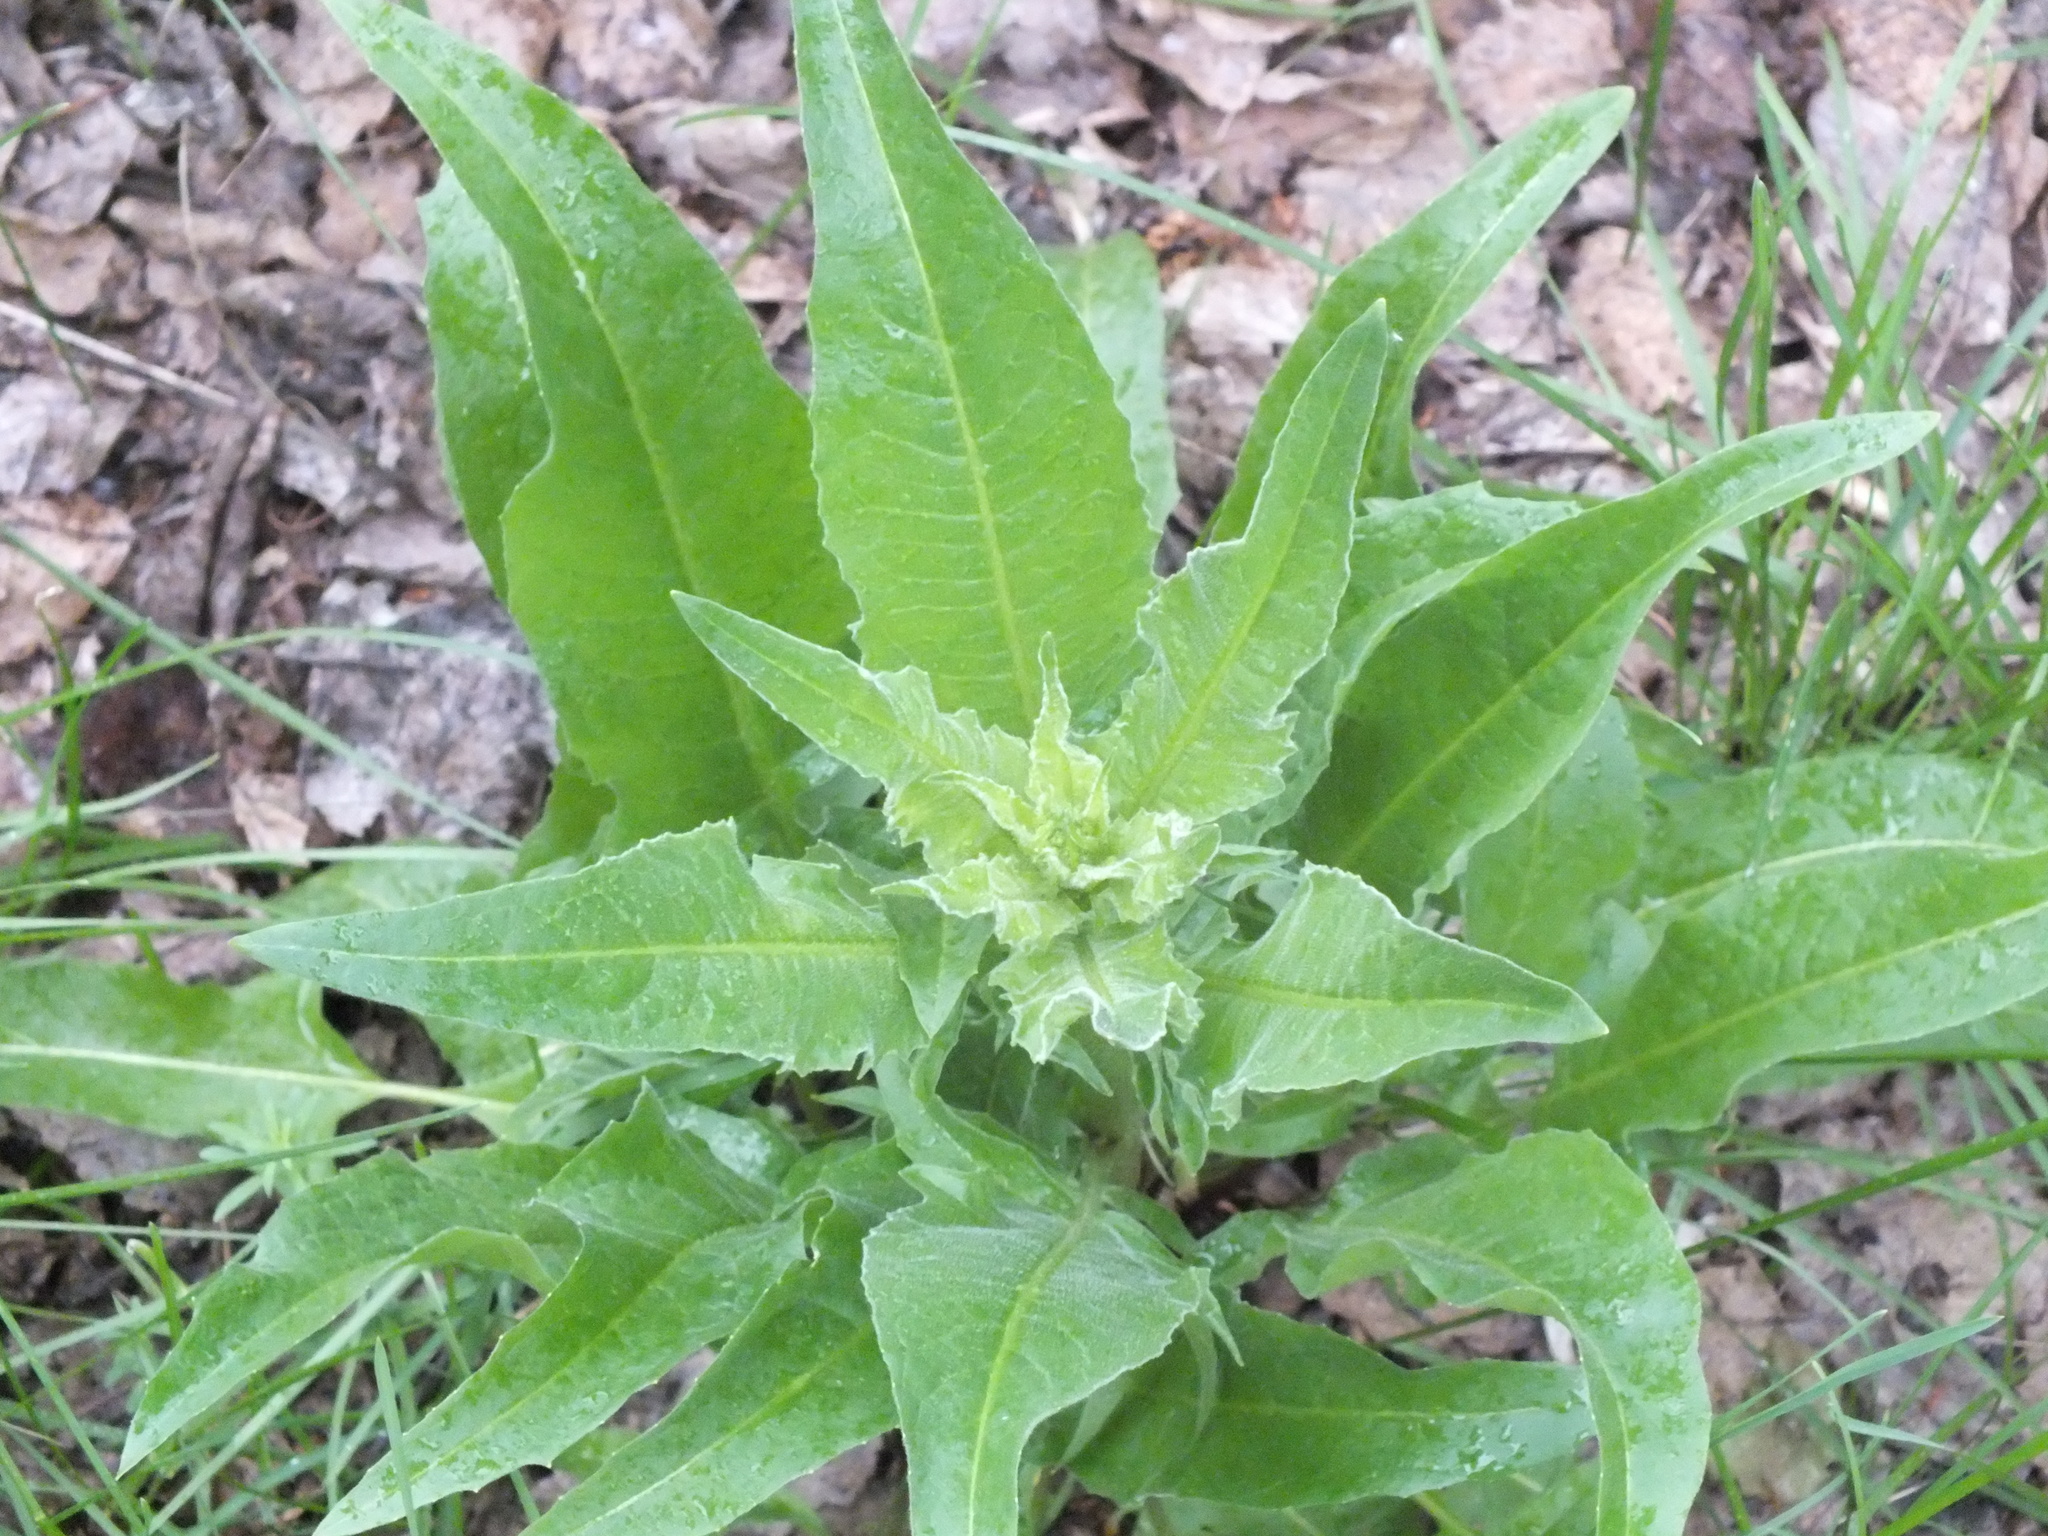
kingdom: Plantae
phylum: Tracheophyta
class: Magnoliopsida
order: Brassicales
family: Brassicaceae
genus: Bunias
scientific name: Bunias orientalis
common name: Warty-cabbage
